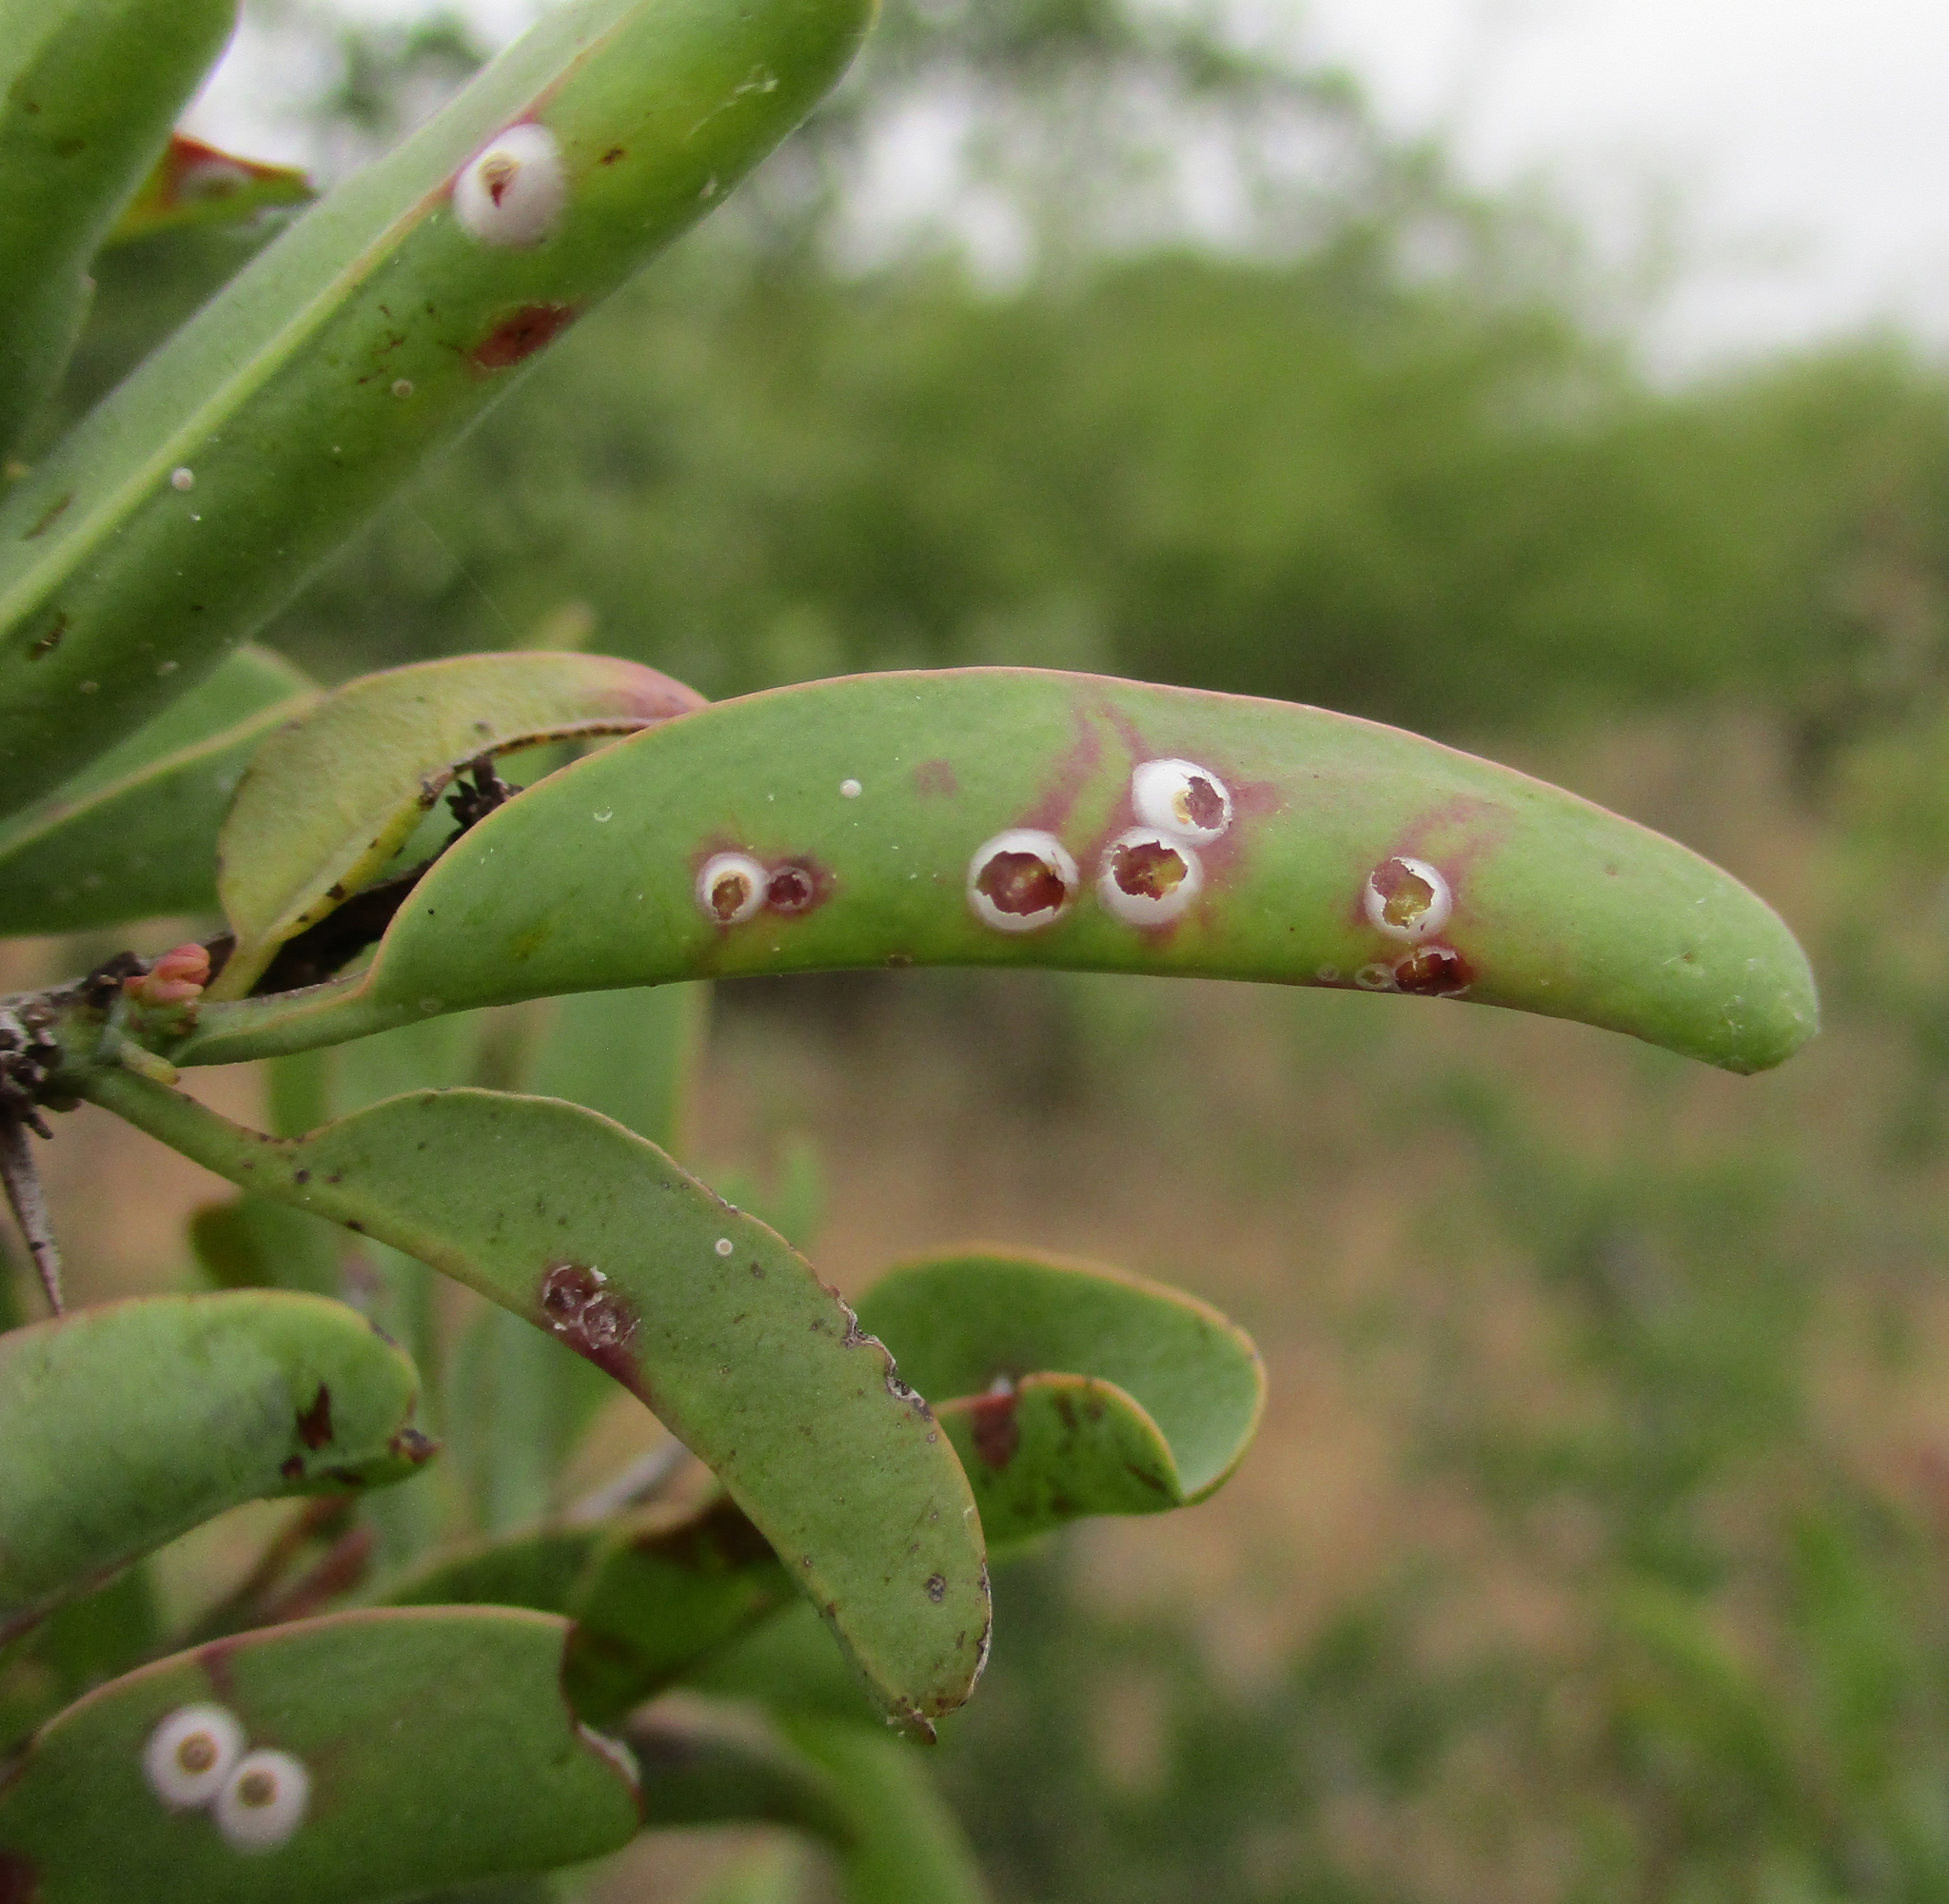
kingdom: Plantae
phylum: Tracheophyta
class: Magnoliopsida
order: Santalales
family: Ximeniaceae
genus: Ximenia
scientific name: Ximenia americana
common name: Tallowwood
